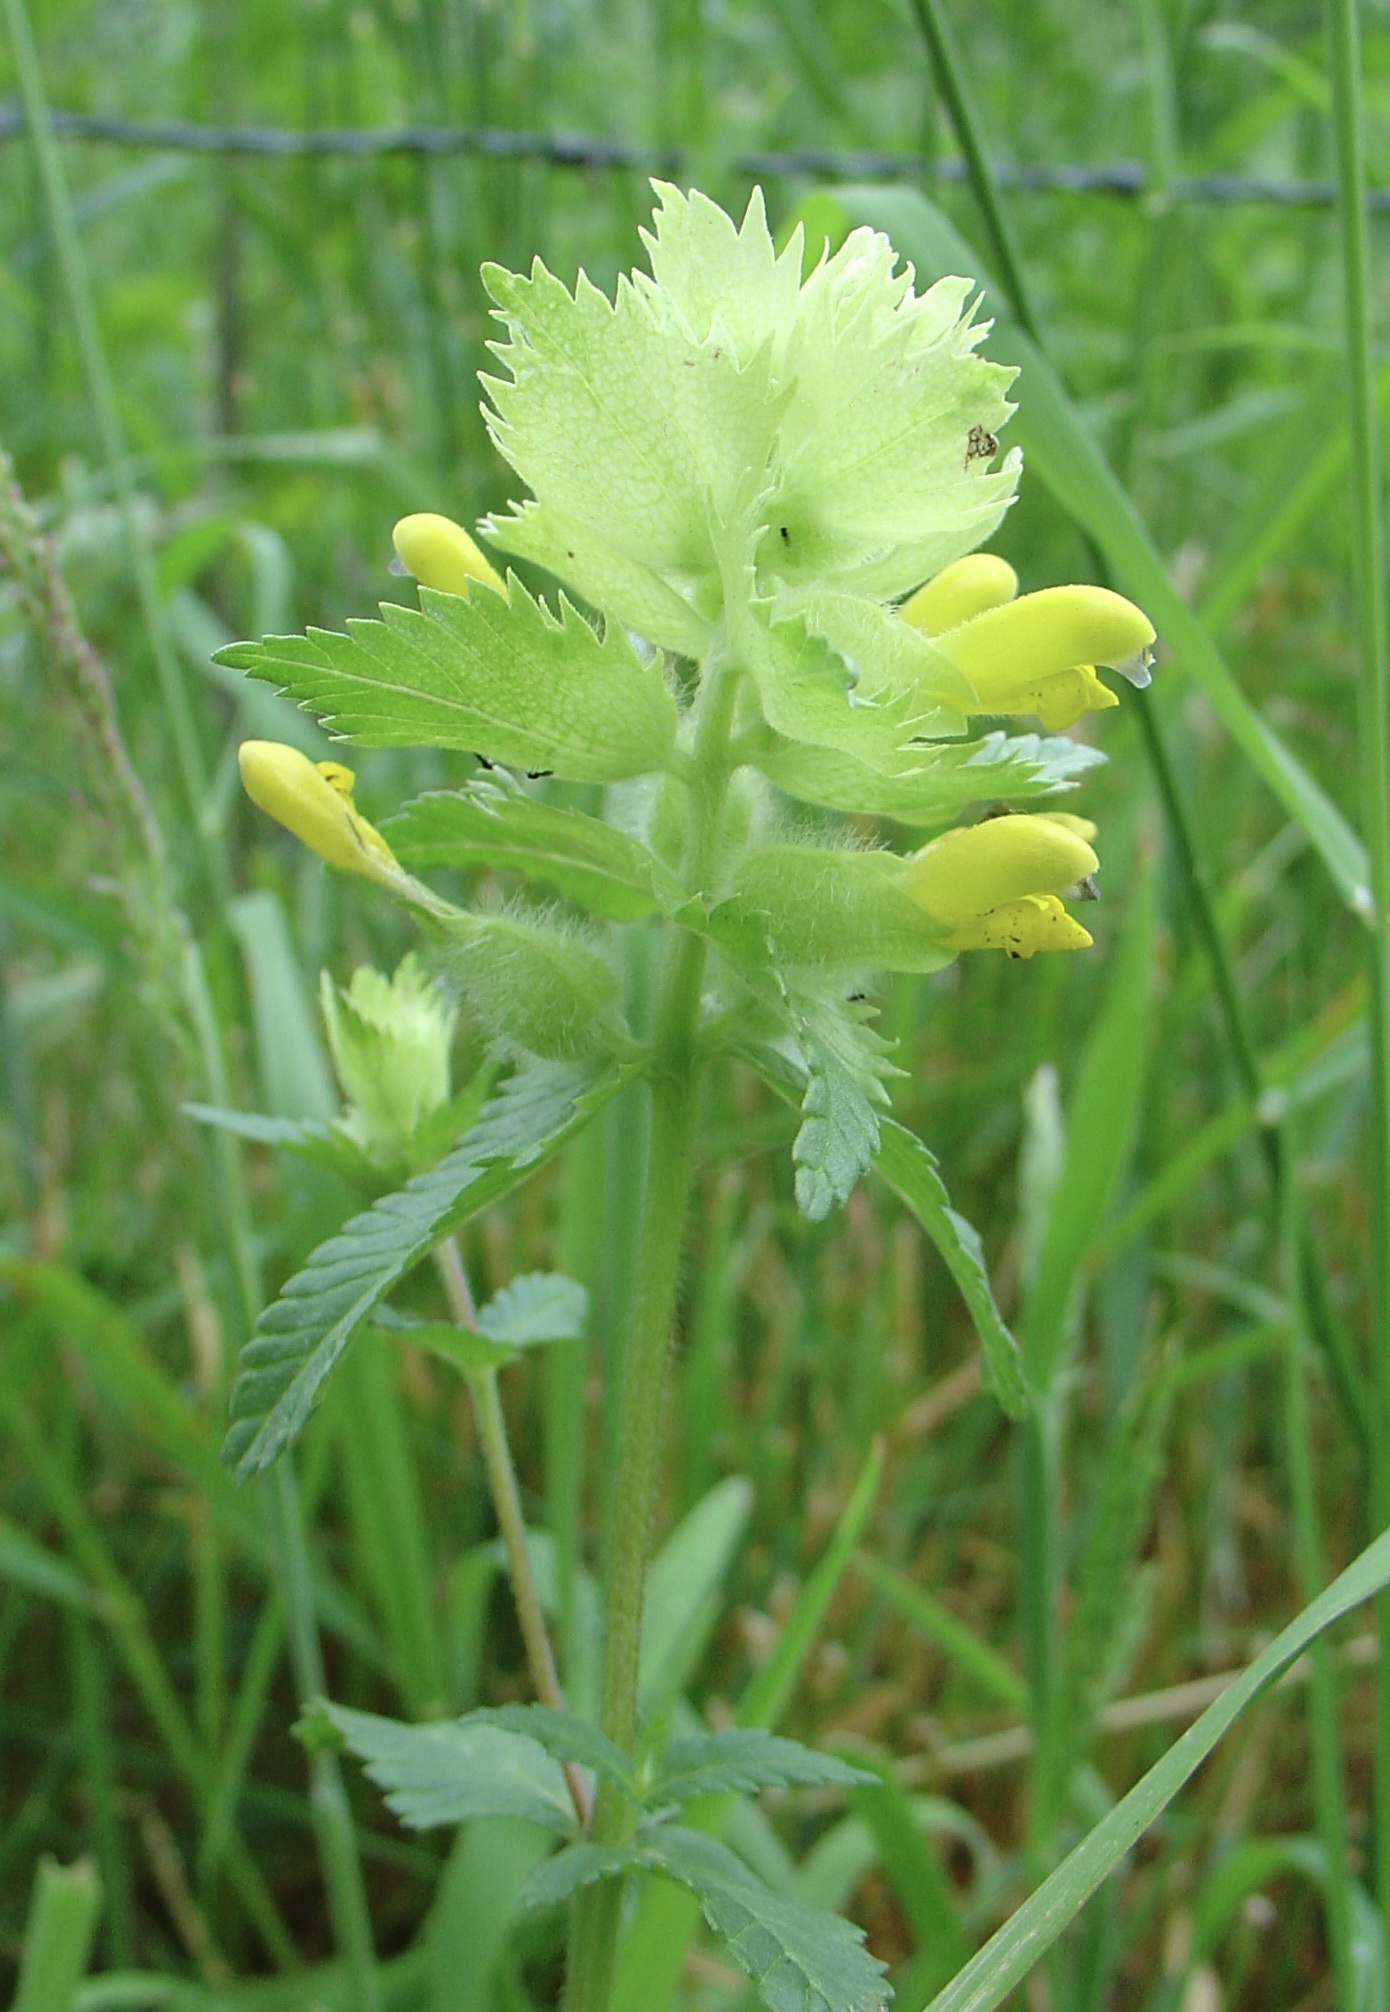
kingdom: Plantae
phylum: Tracheophyta
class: Magnoliopsida
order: Lamiales
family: Orobanchaceae
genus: Rhinanthus
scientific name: Rhinanthus alectorolophus
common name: Greater yellow-rattle
